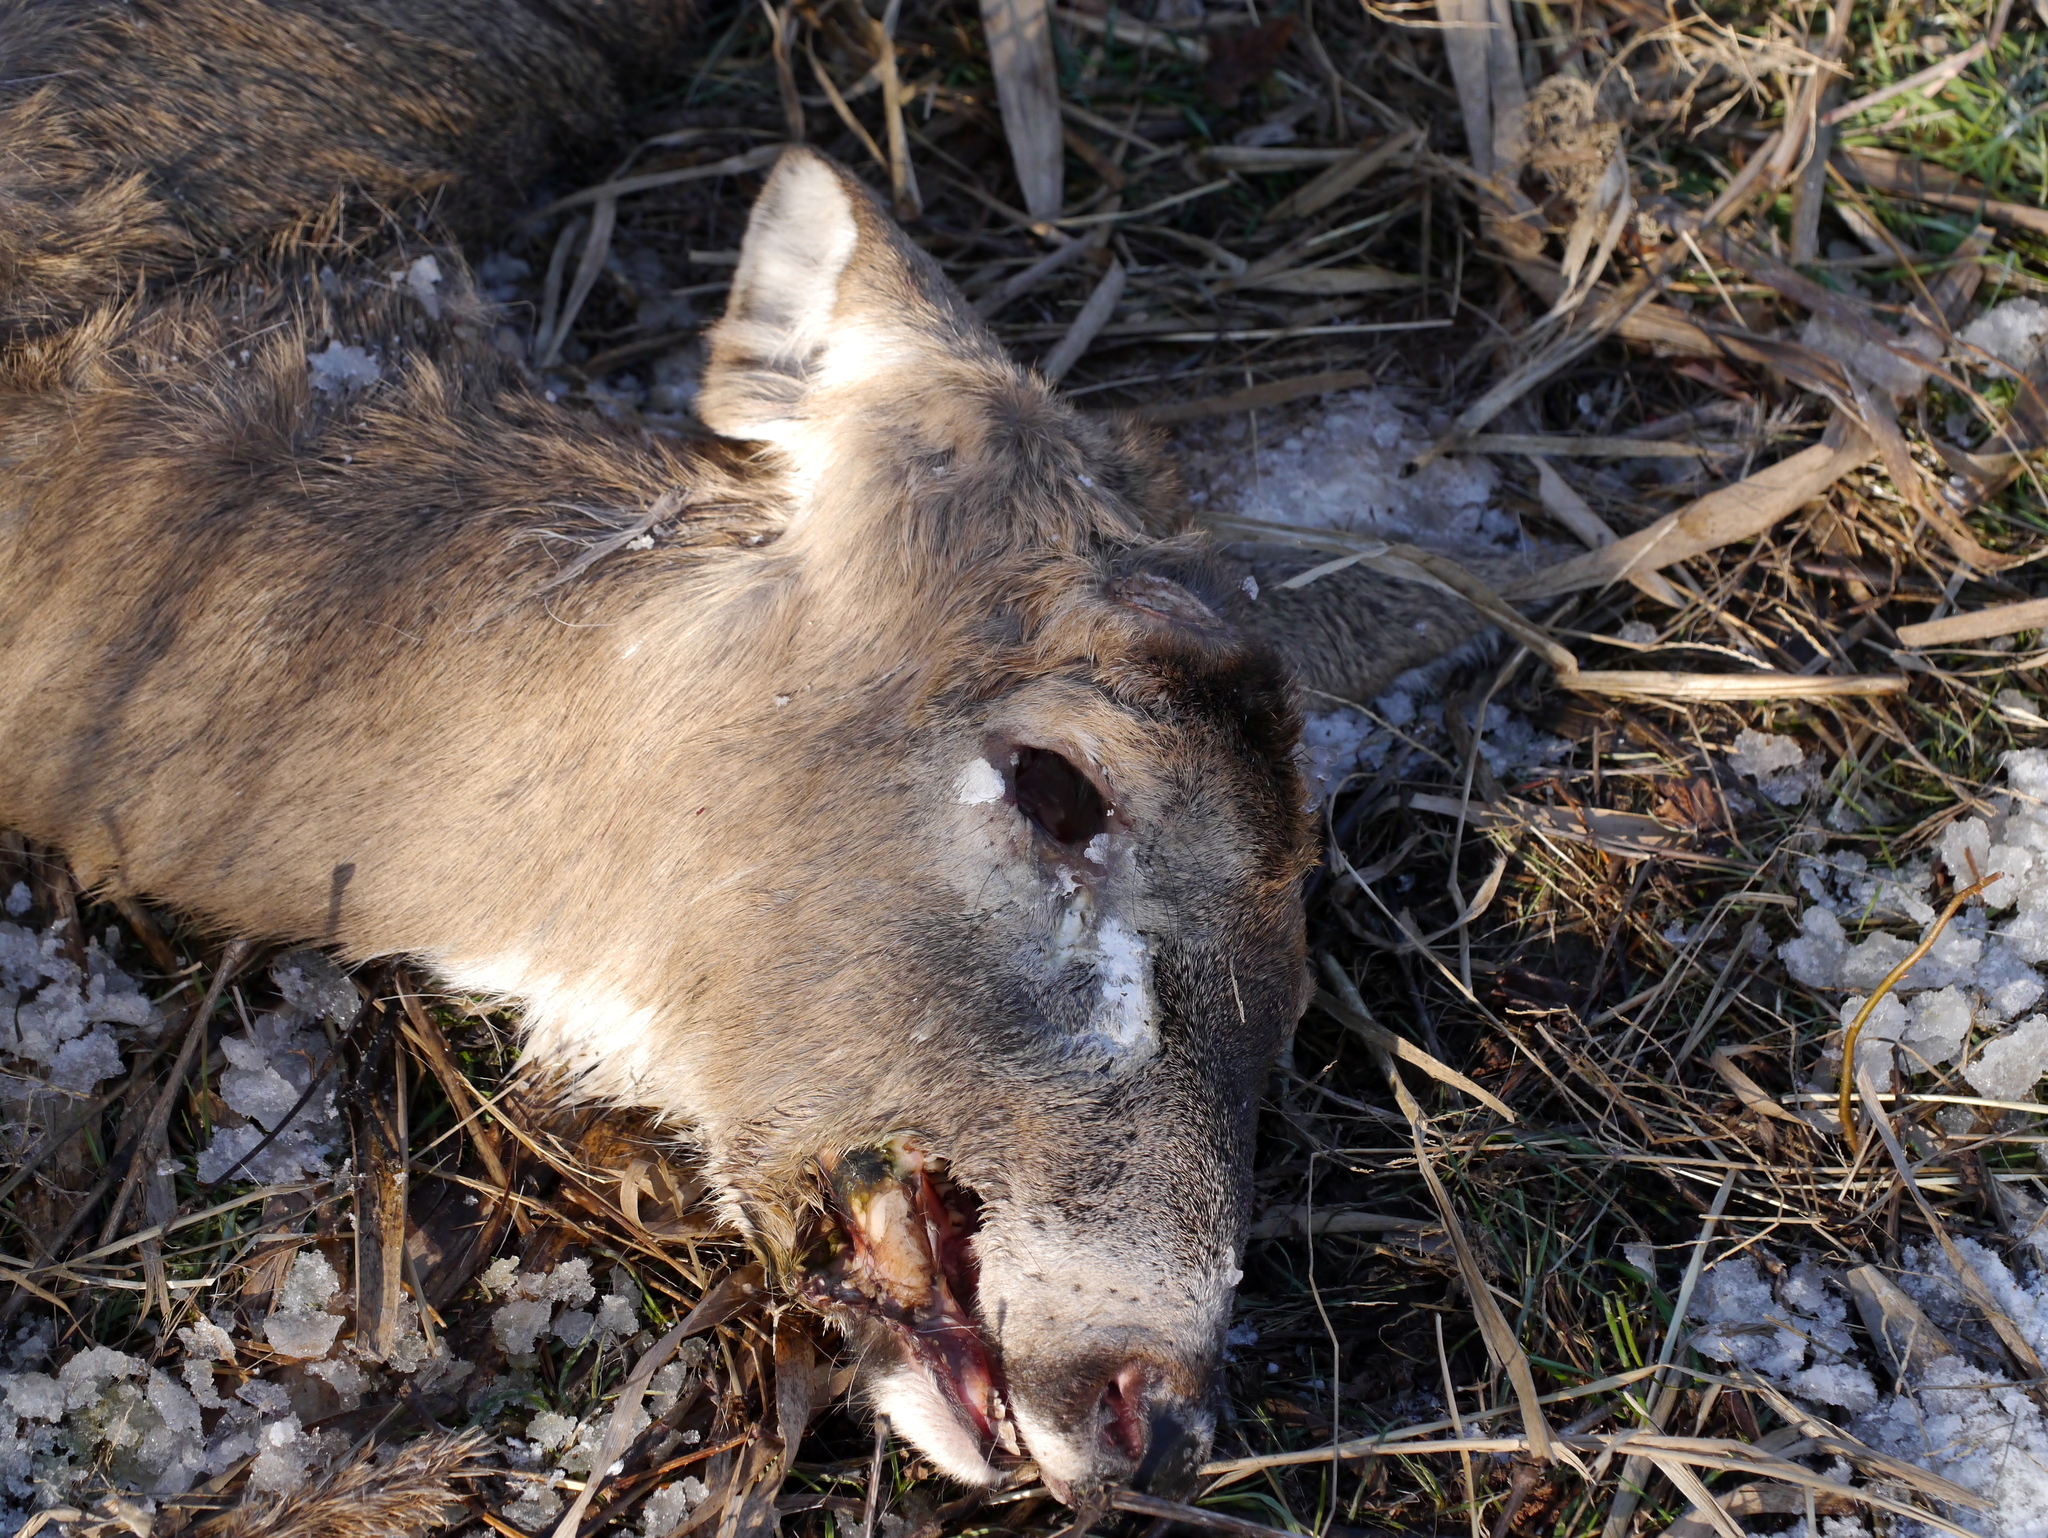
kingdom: Animalia
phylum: Chordata
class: Mammalia
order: Artiodactyla
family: Cervidae
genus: Odocoileus
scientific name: Odocoileus virginianus
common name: White-tailed deer
